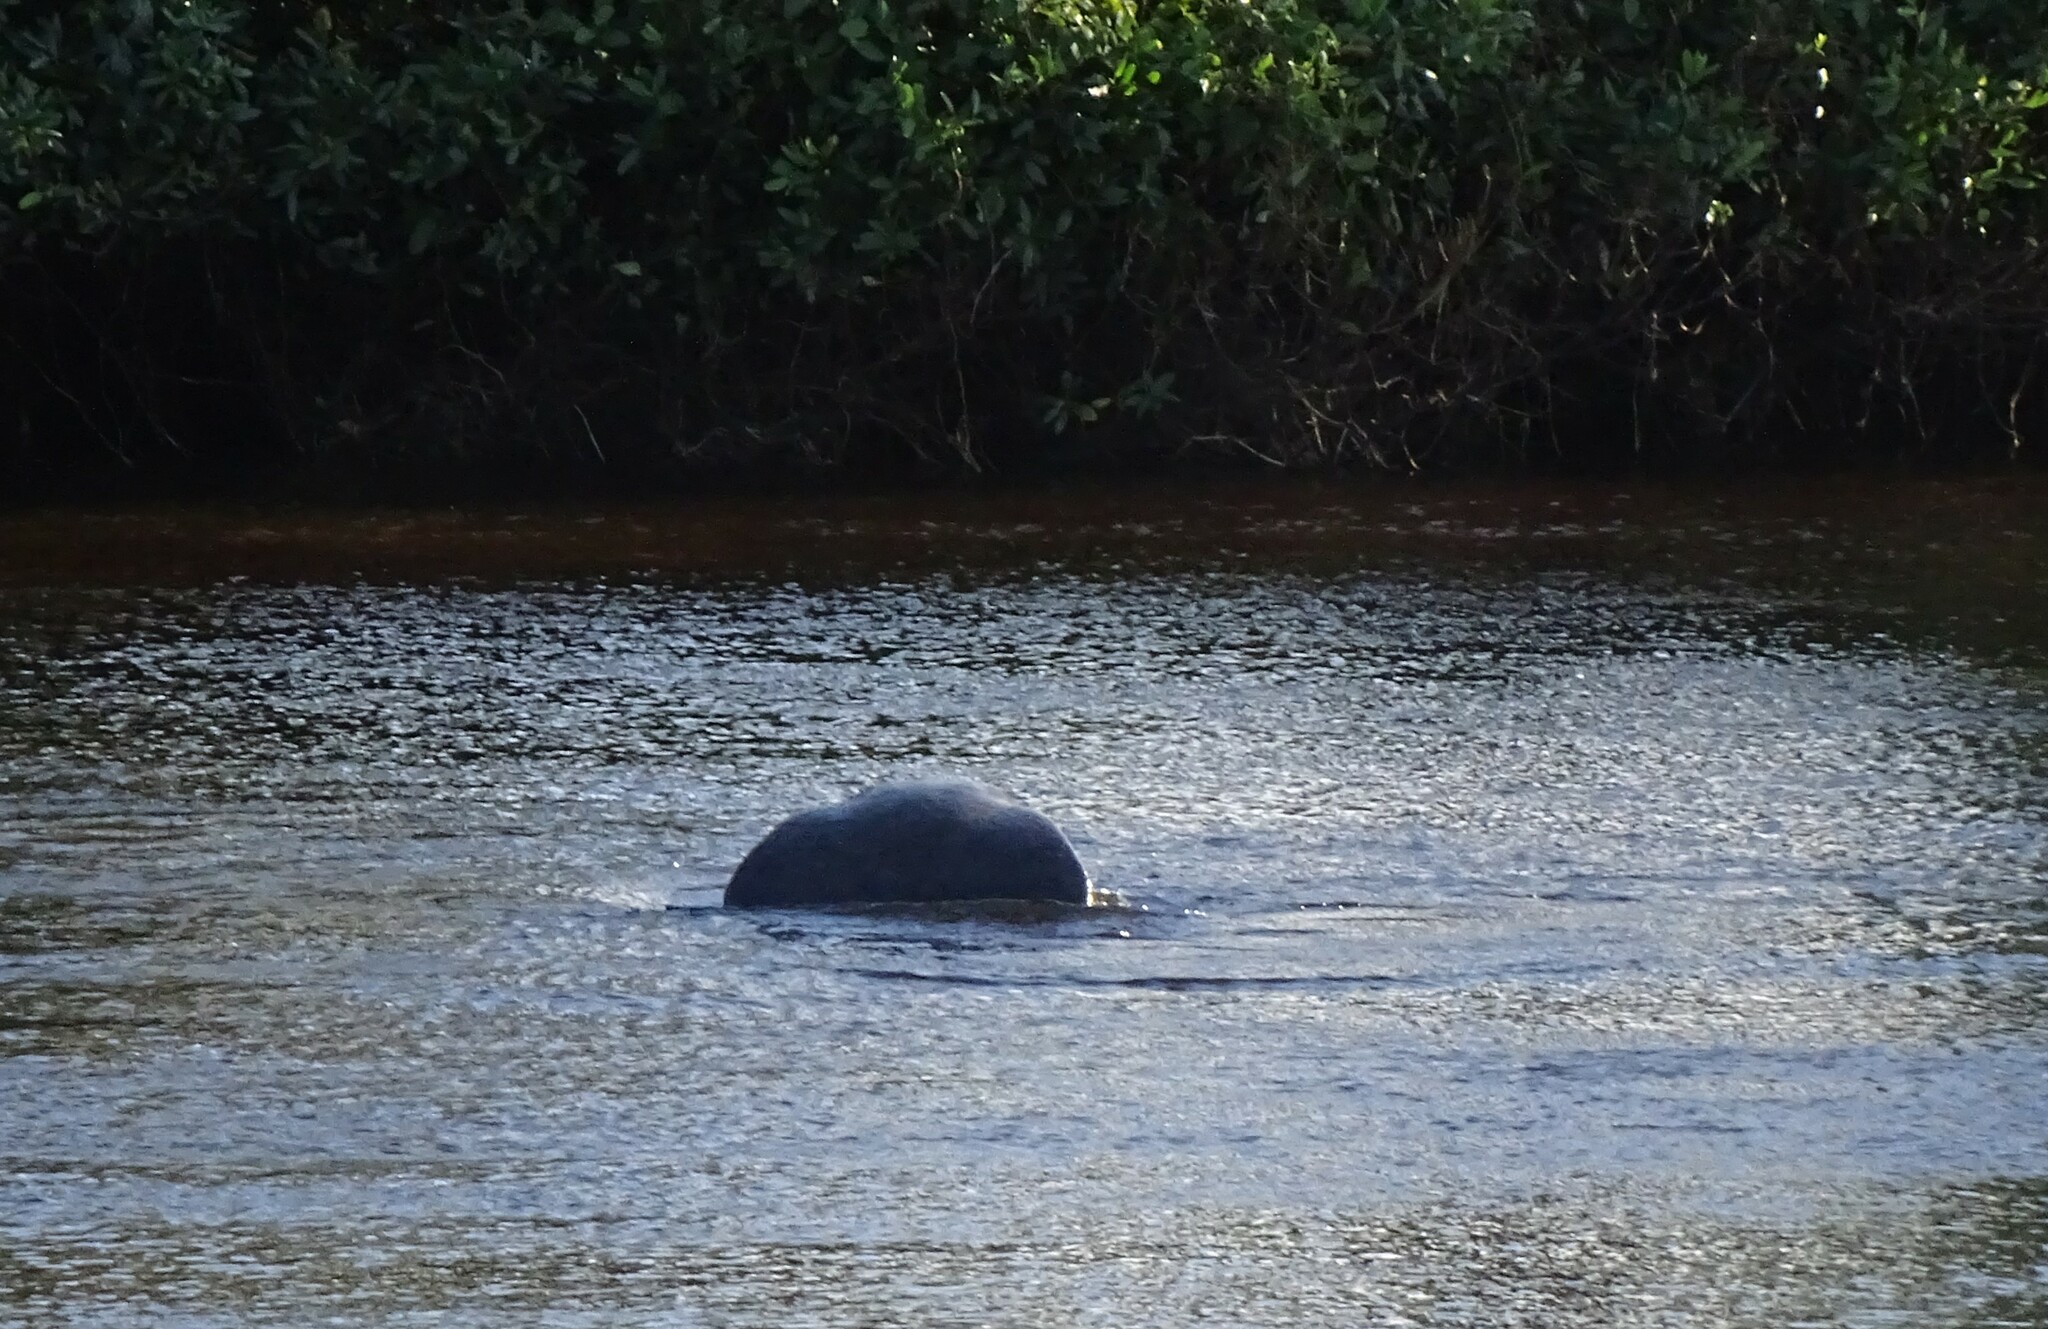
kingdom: Animalia
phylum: Chordata
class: Mammalia
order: Sirenia
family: Trichechidae
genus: Trichechus
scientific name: Trichechus manatus
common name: West indian manatee
